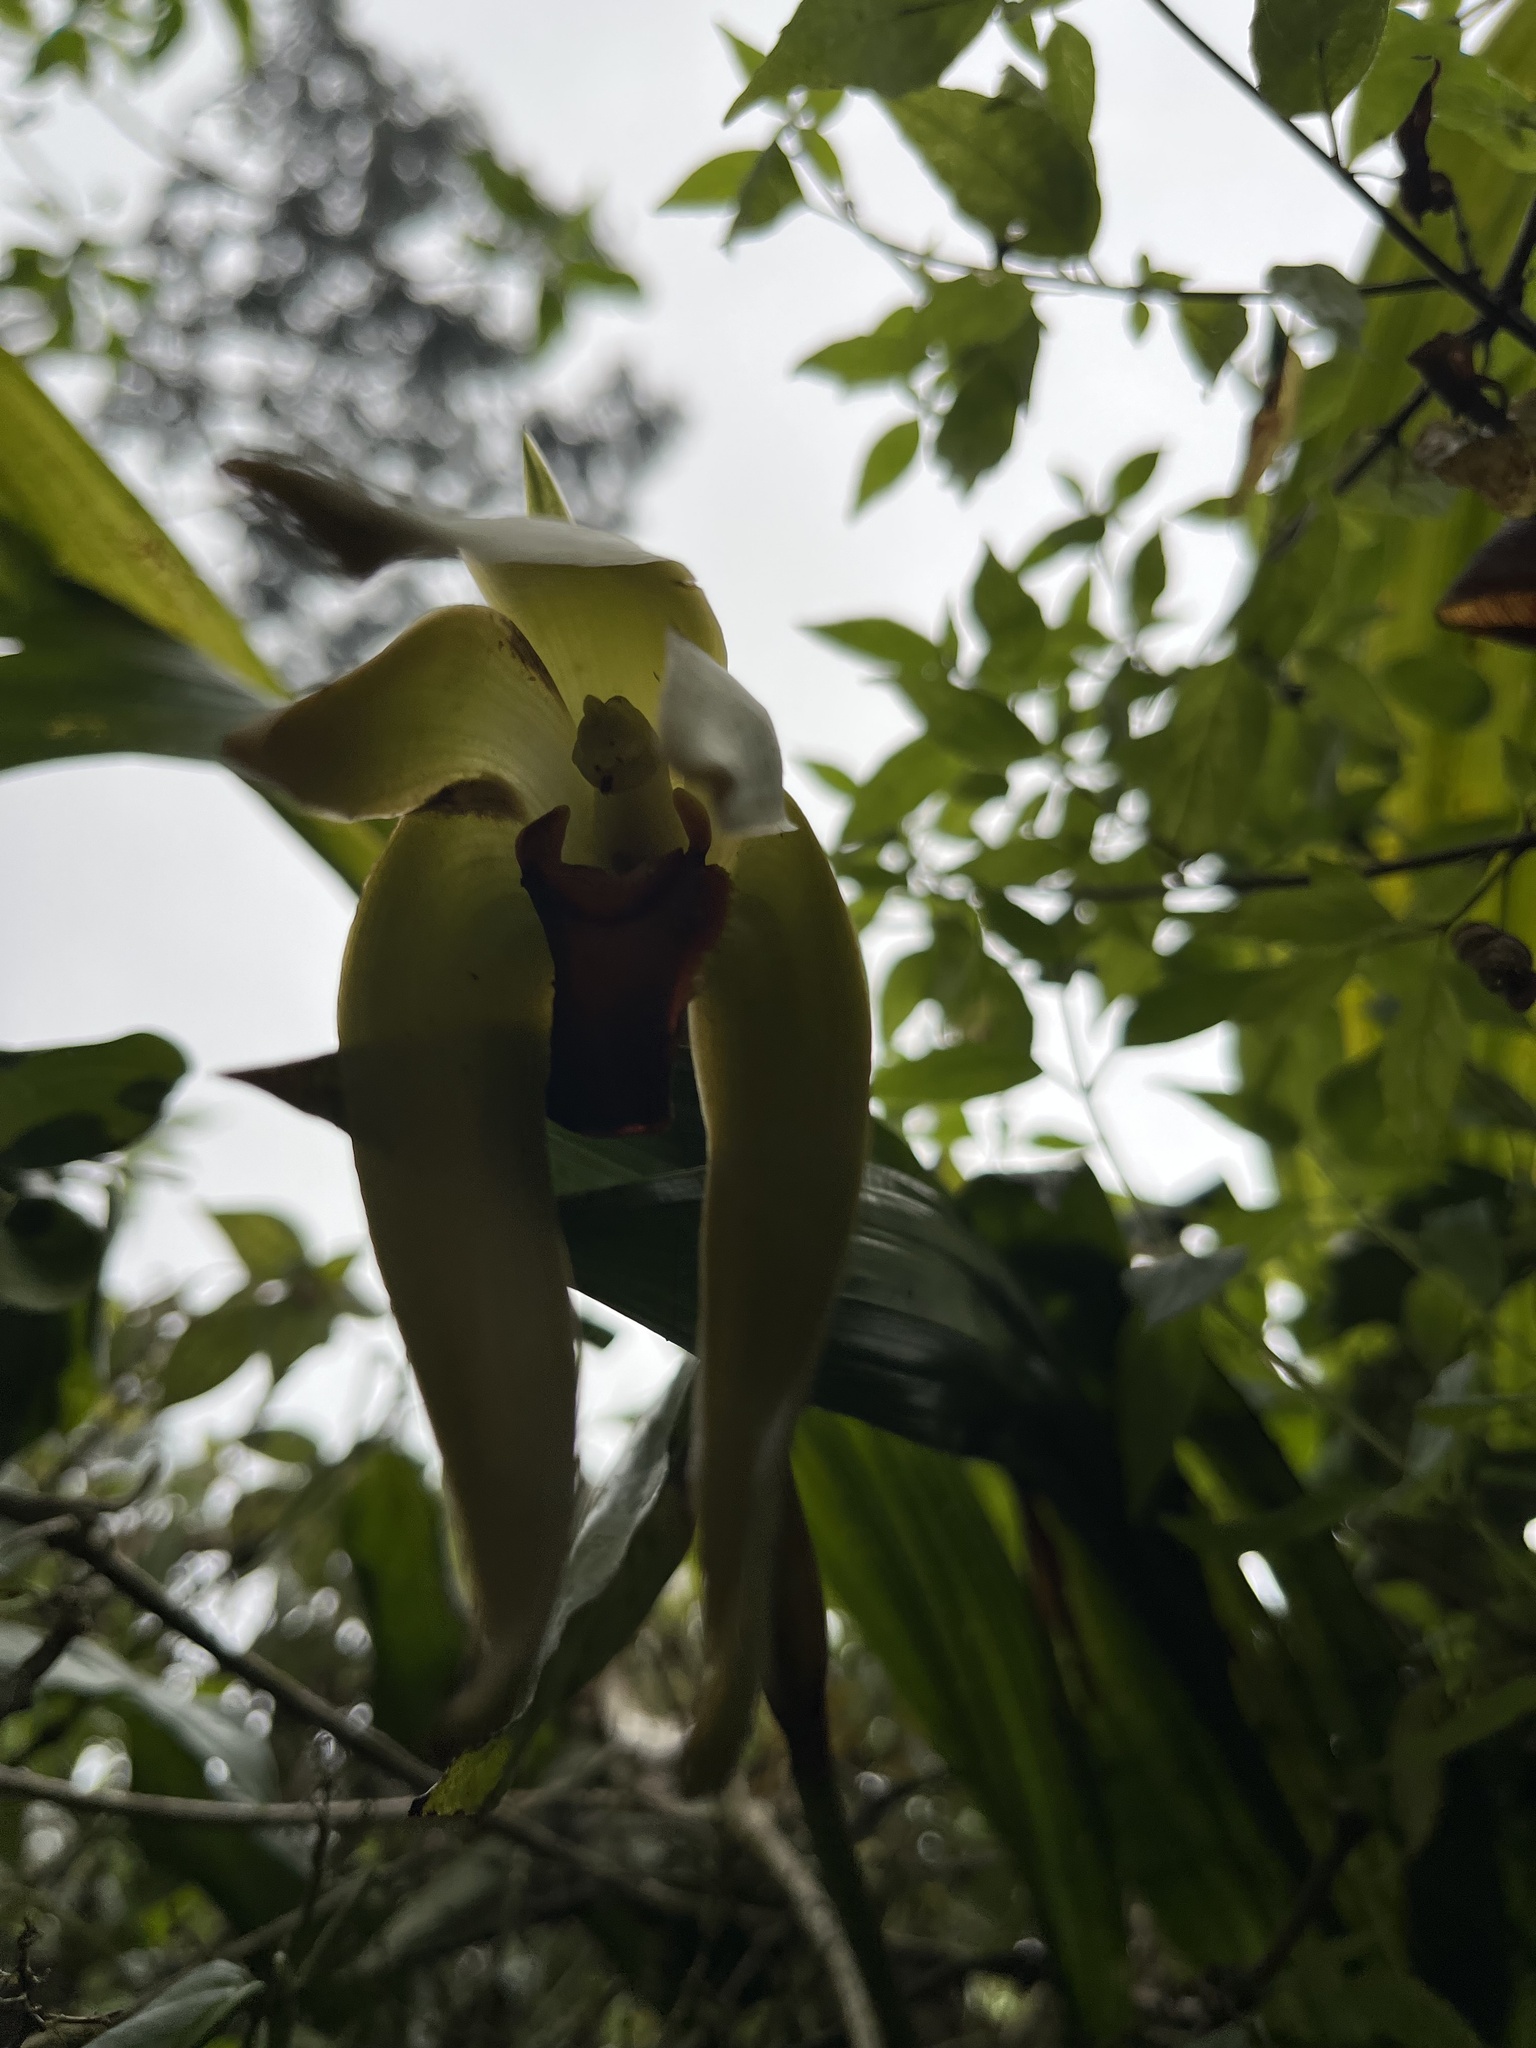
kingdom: Plantae
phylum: Tracheophyta
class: Liliopsida
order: Asparagales
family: Orchidaceae
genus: Ida
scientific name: Ida grandis
